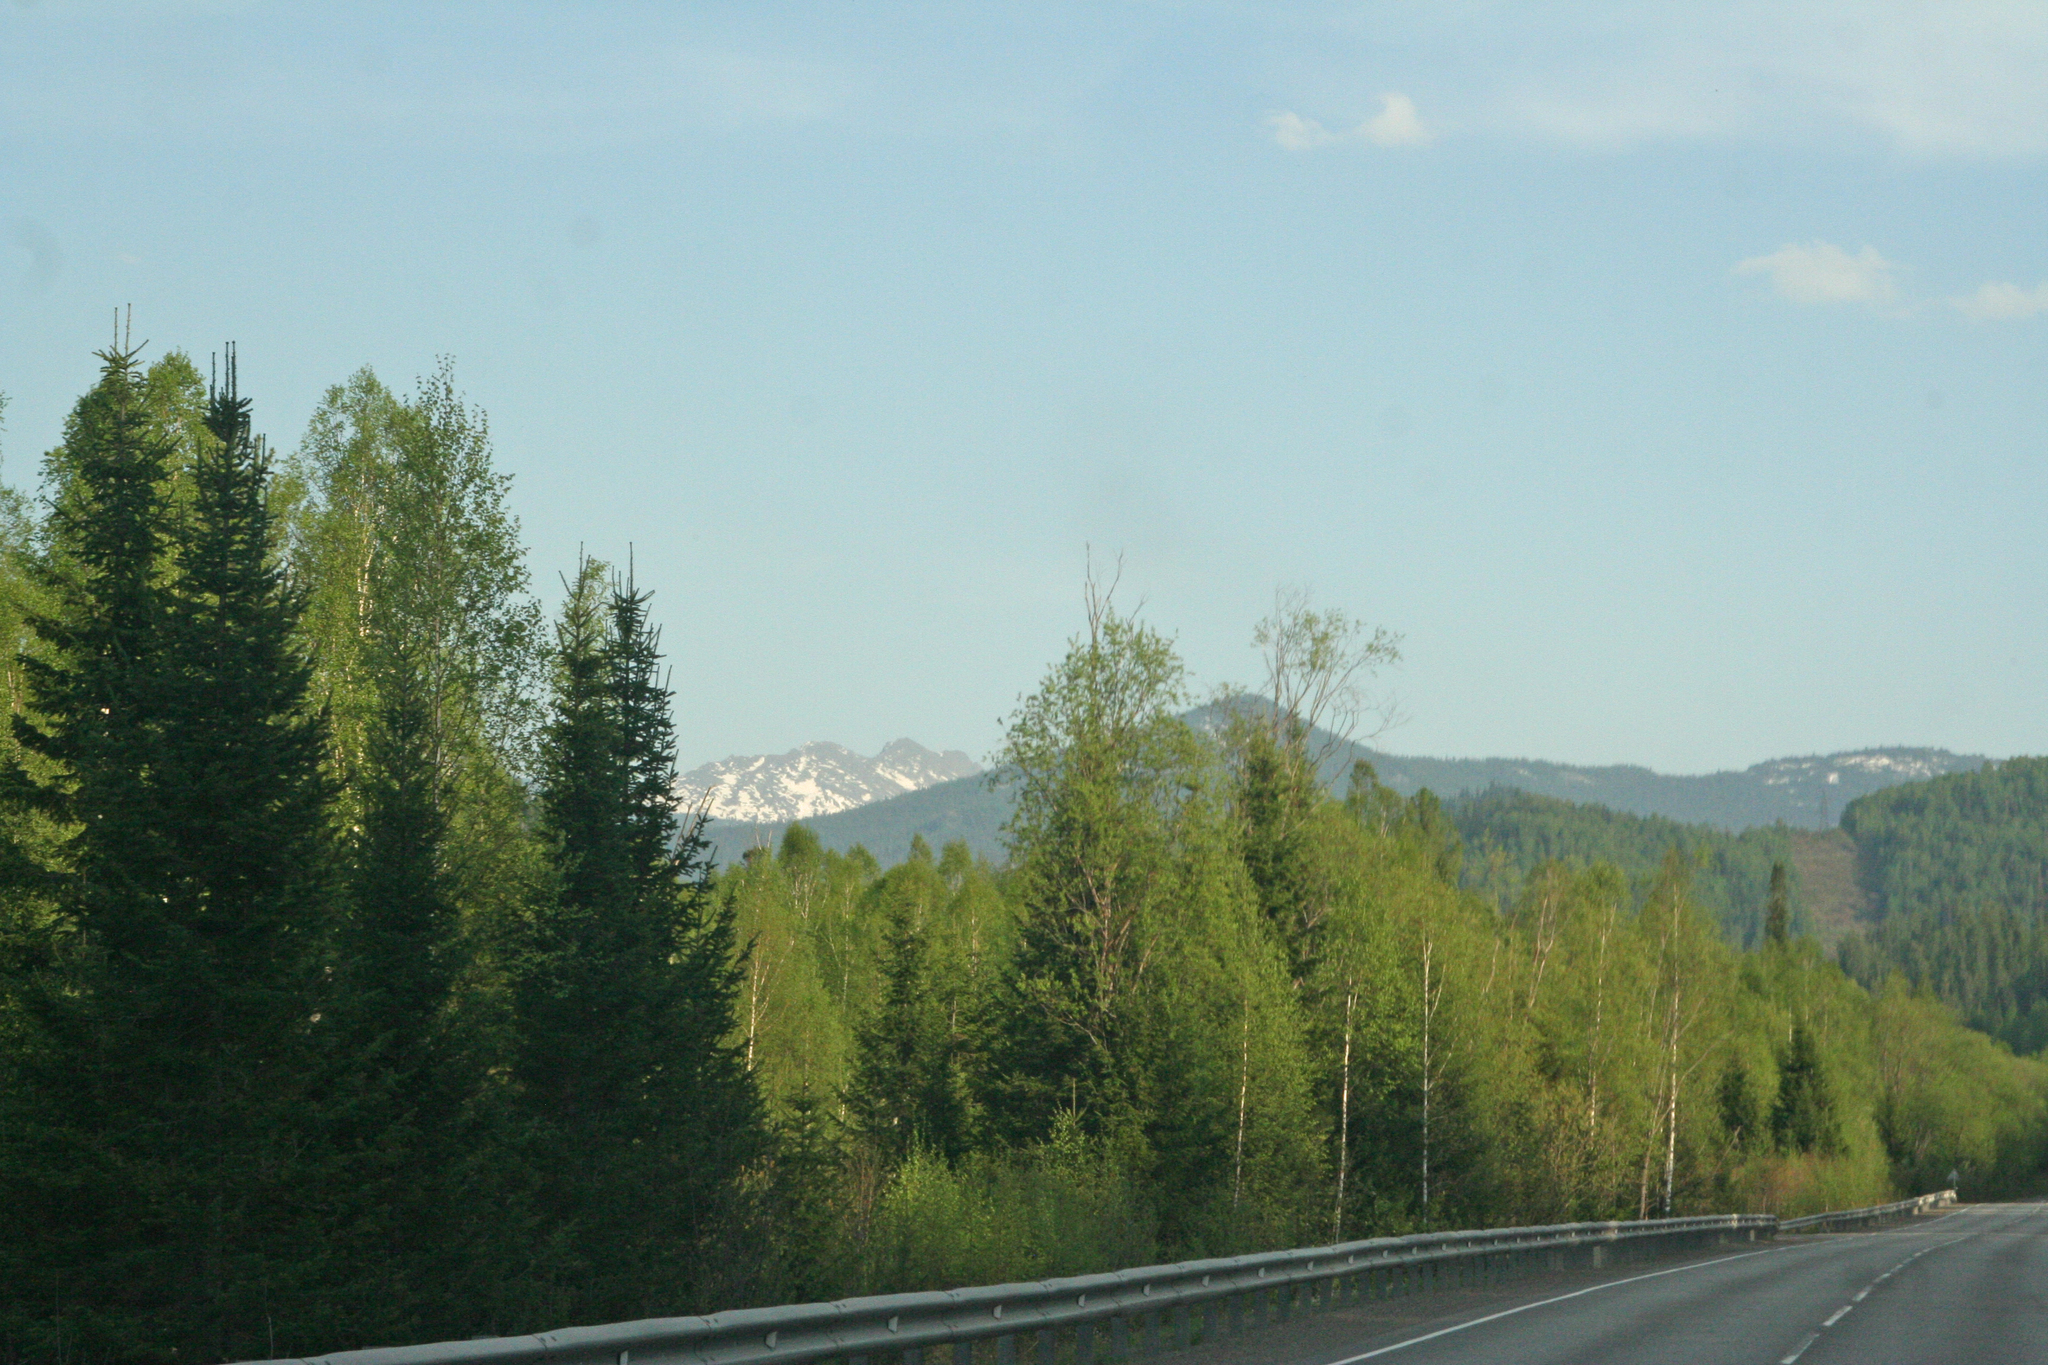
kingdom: Plantae
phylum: Tracheophyta
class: Pinopsida
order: Pinales
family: Pinaceae
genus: Picea
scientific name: Picea obovata
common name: Siberian spruce
